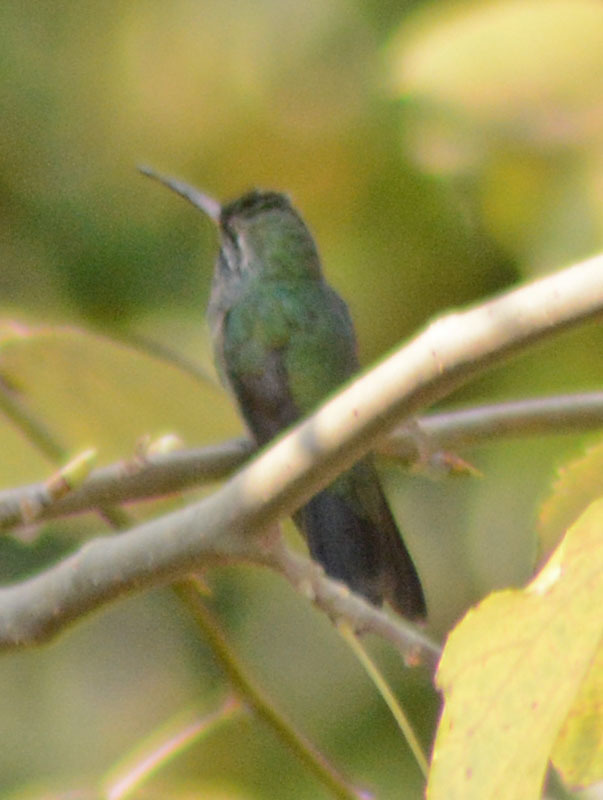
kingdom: Animalia
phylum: Chordata
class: Aves
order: Apodiformes
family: Trochilidae
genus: Cynanthus
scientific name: Cynanthus latirostris
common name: Broad-billed hummingbird
